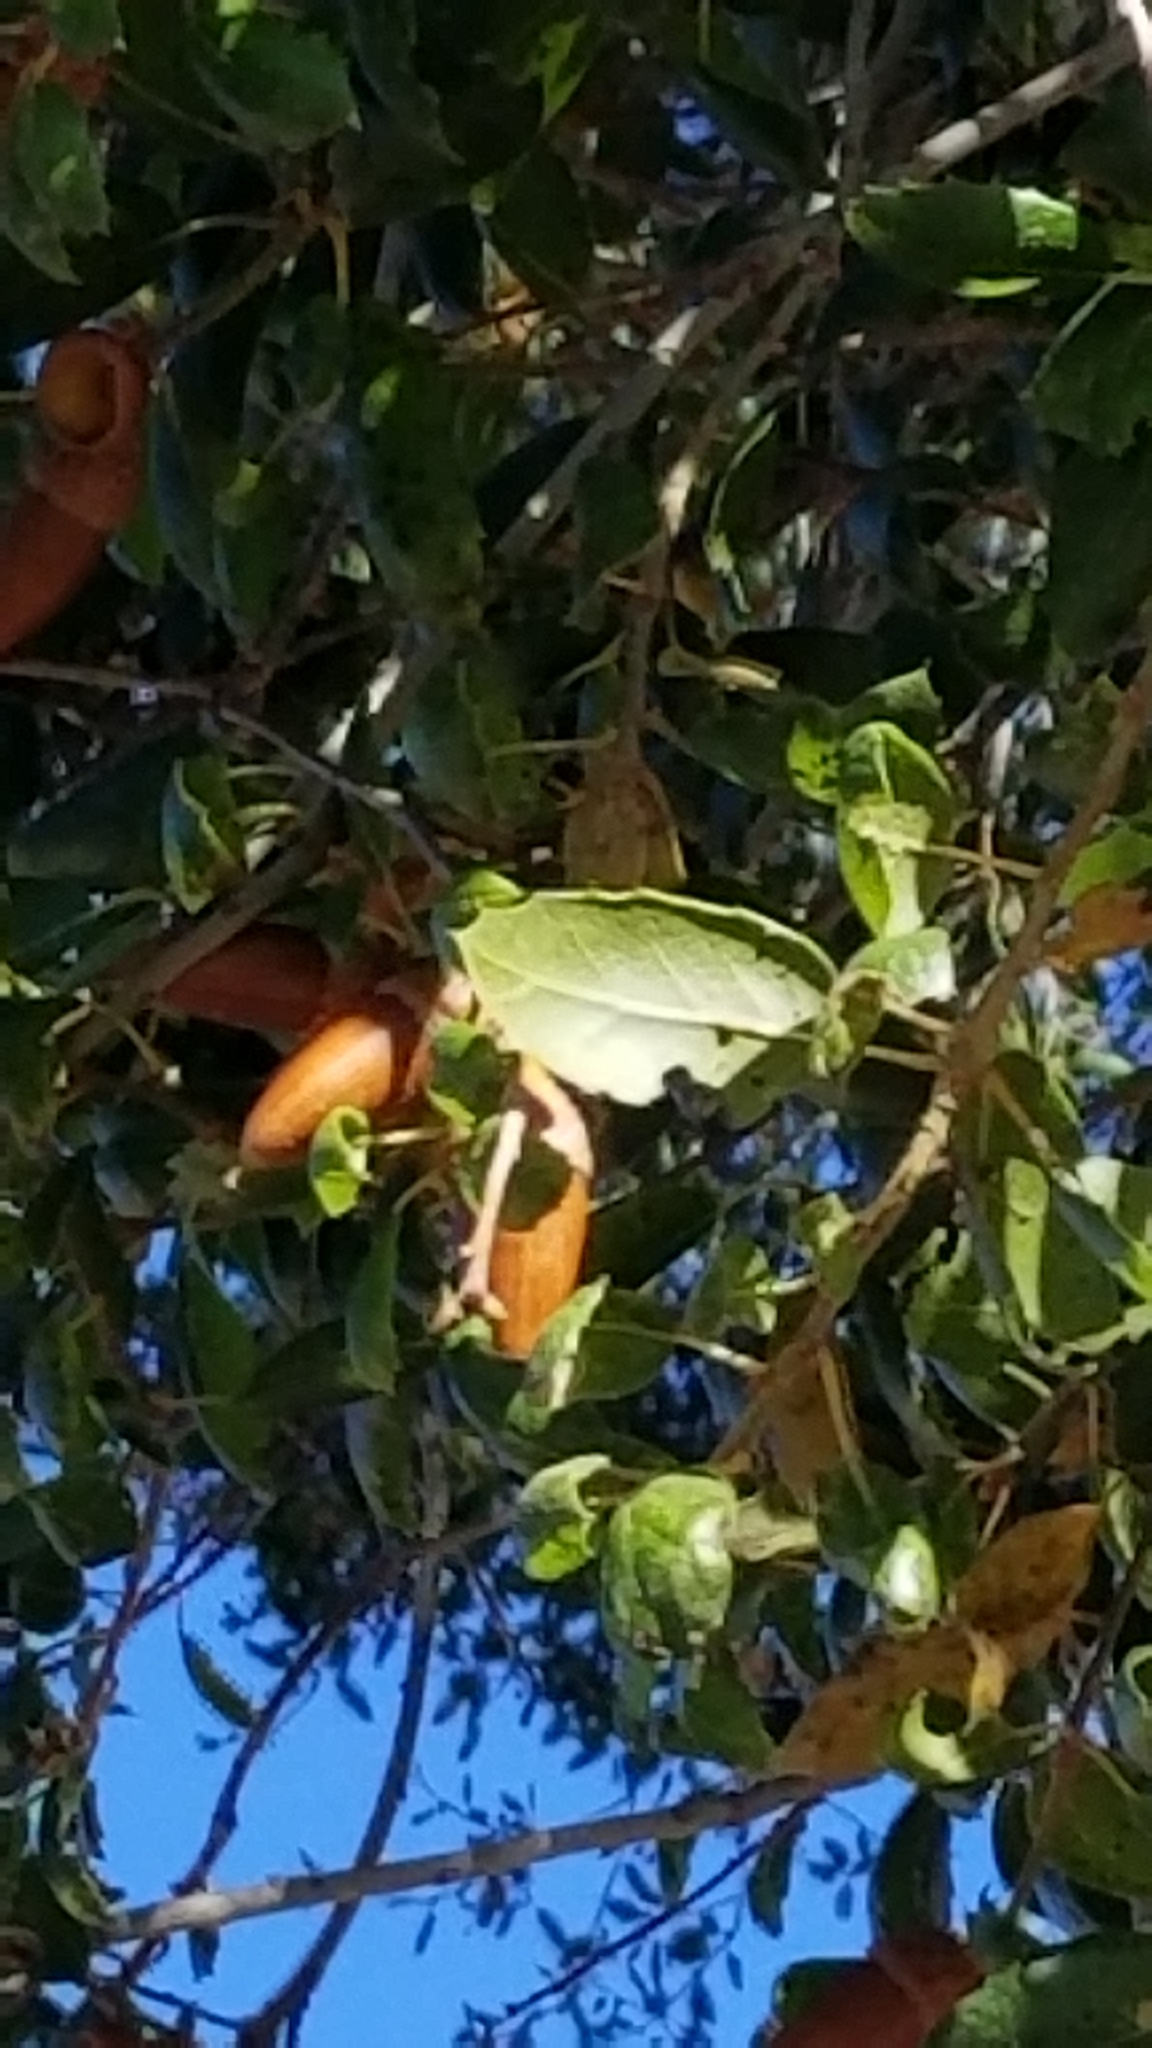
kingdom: Plantae
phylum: Tracheophyta
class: Magnoliopsida
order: Fagales
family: Fagaceae
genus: Quercus
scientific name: Quercus agrifolia
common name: California live oak
